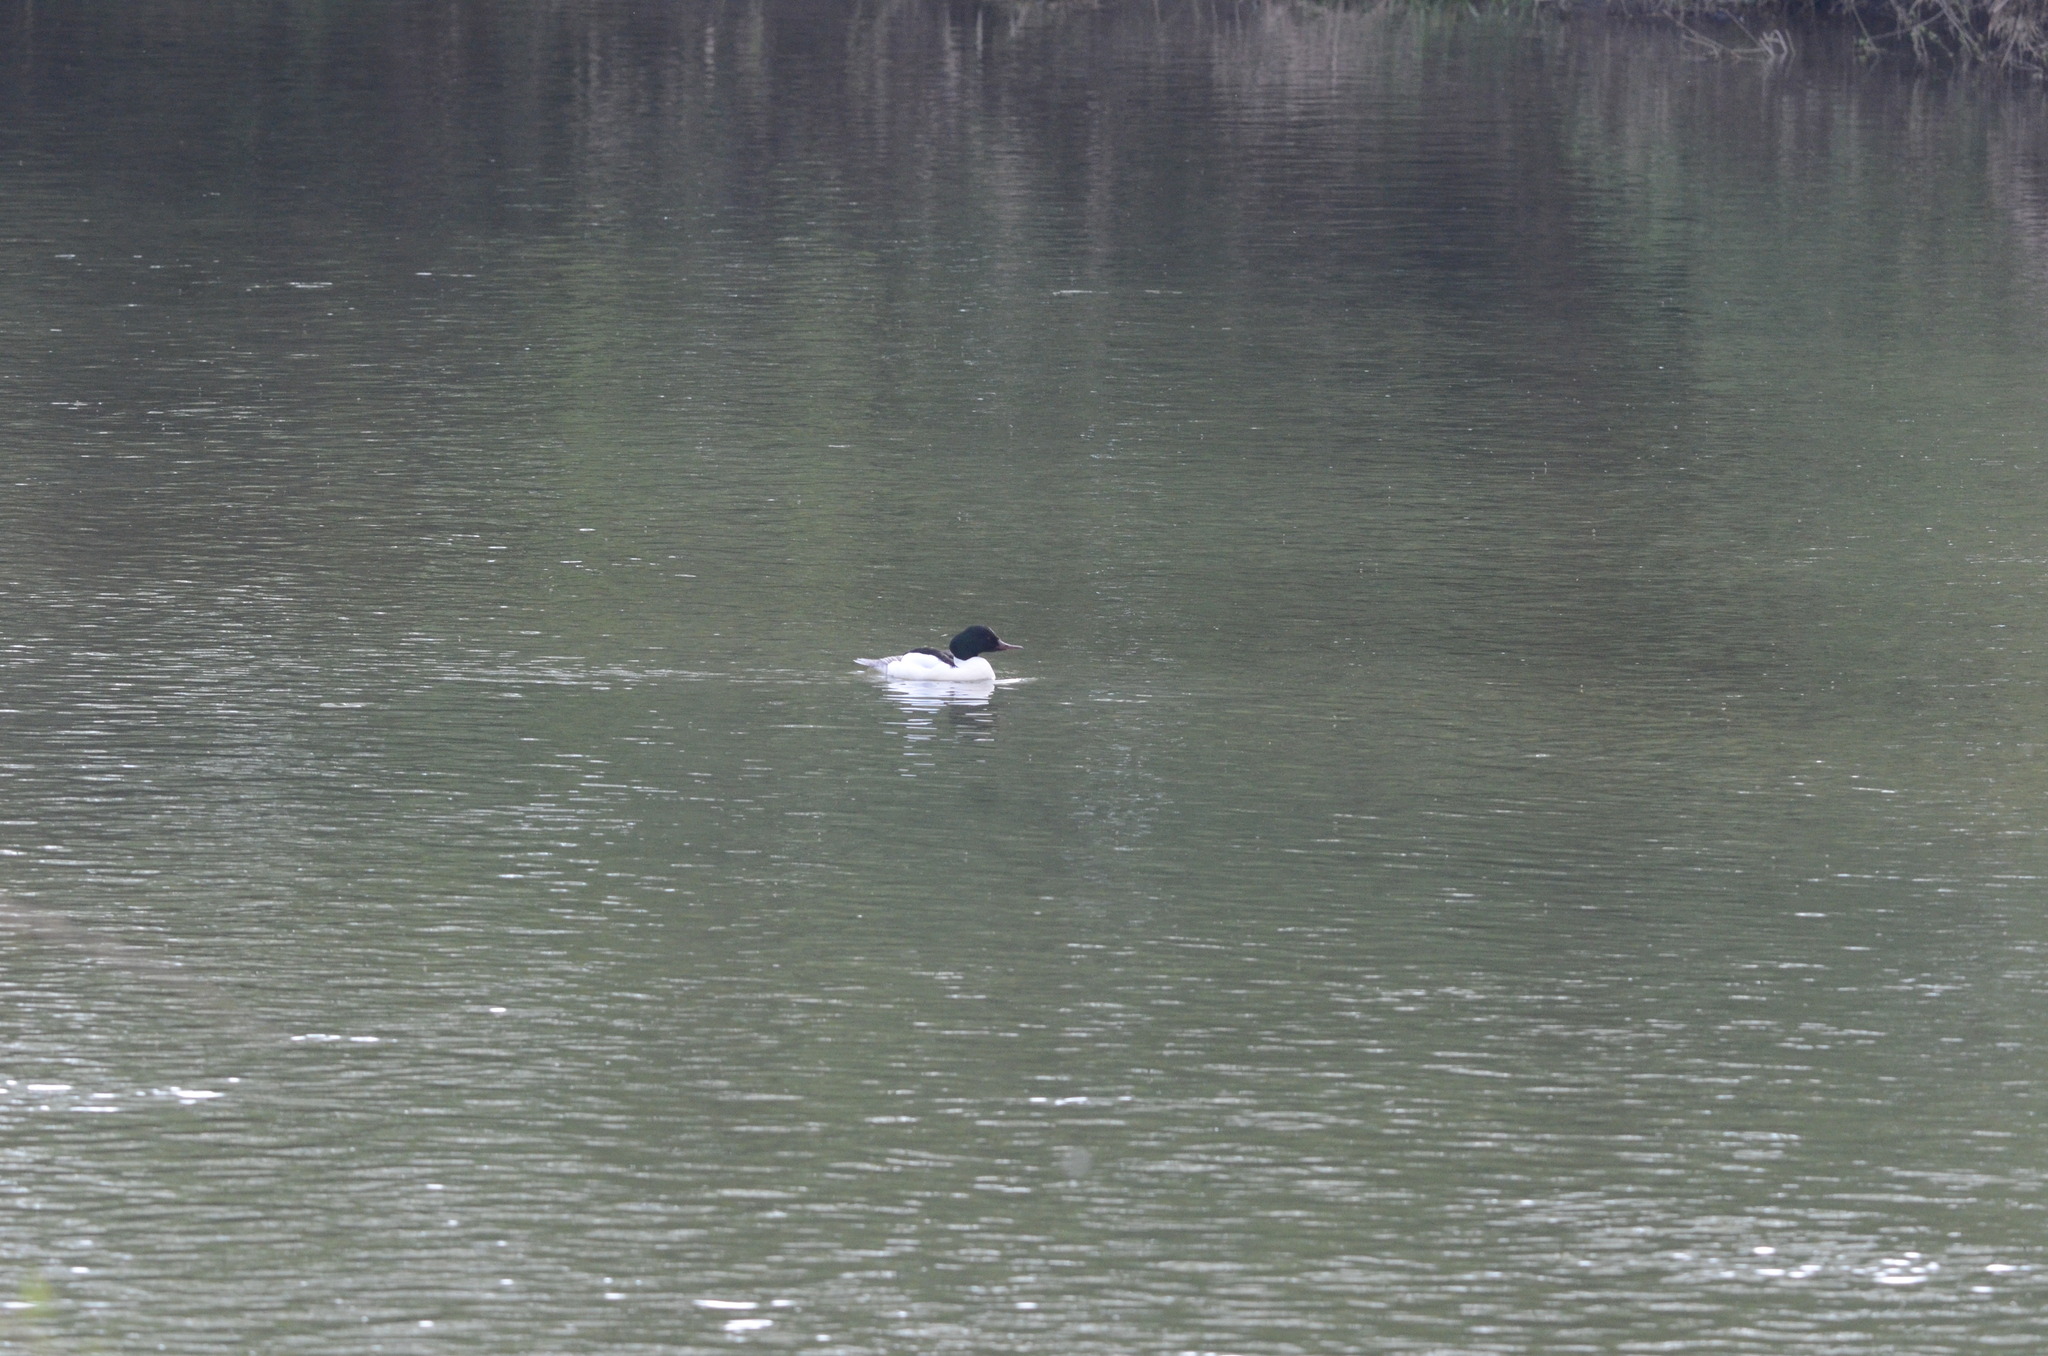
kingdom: Animalia
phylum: Chordata
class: Aves
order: Anseriformes
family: Anatidae
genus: Mergus
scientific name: Mergus merganser
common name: Common merganser
